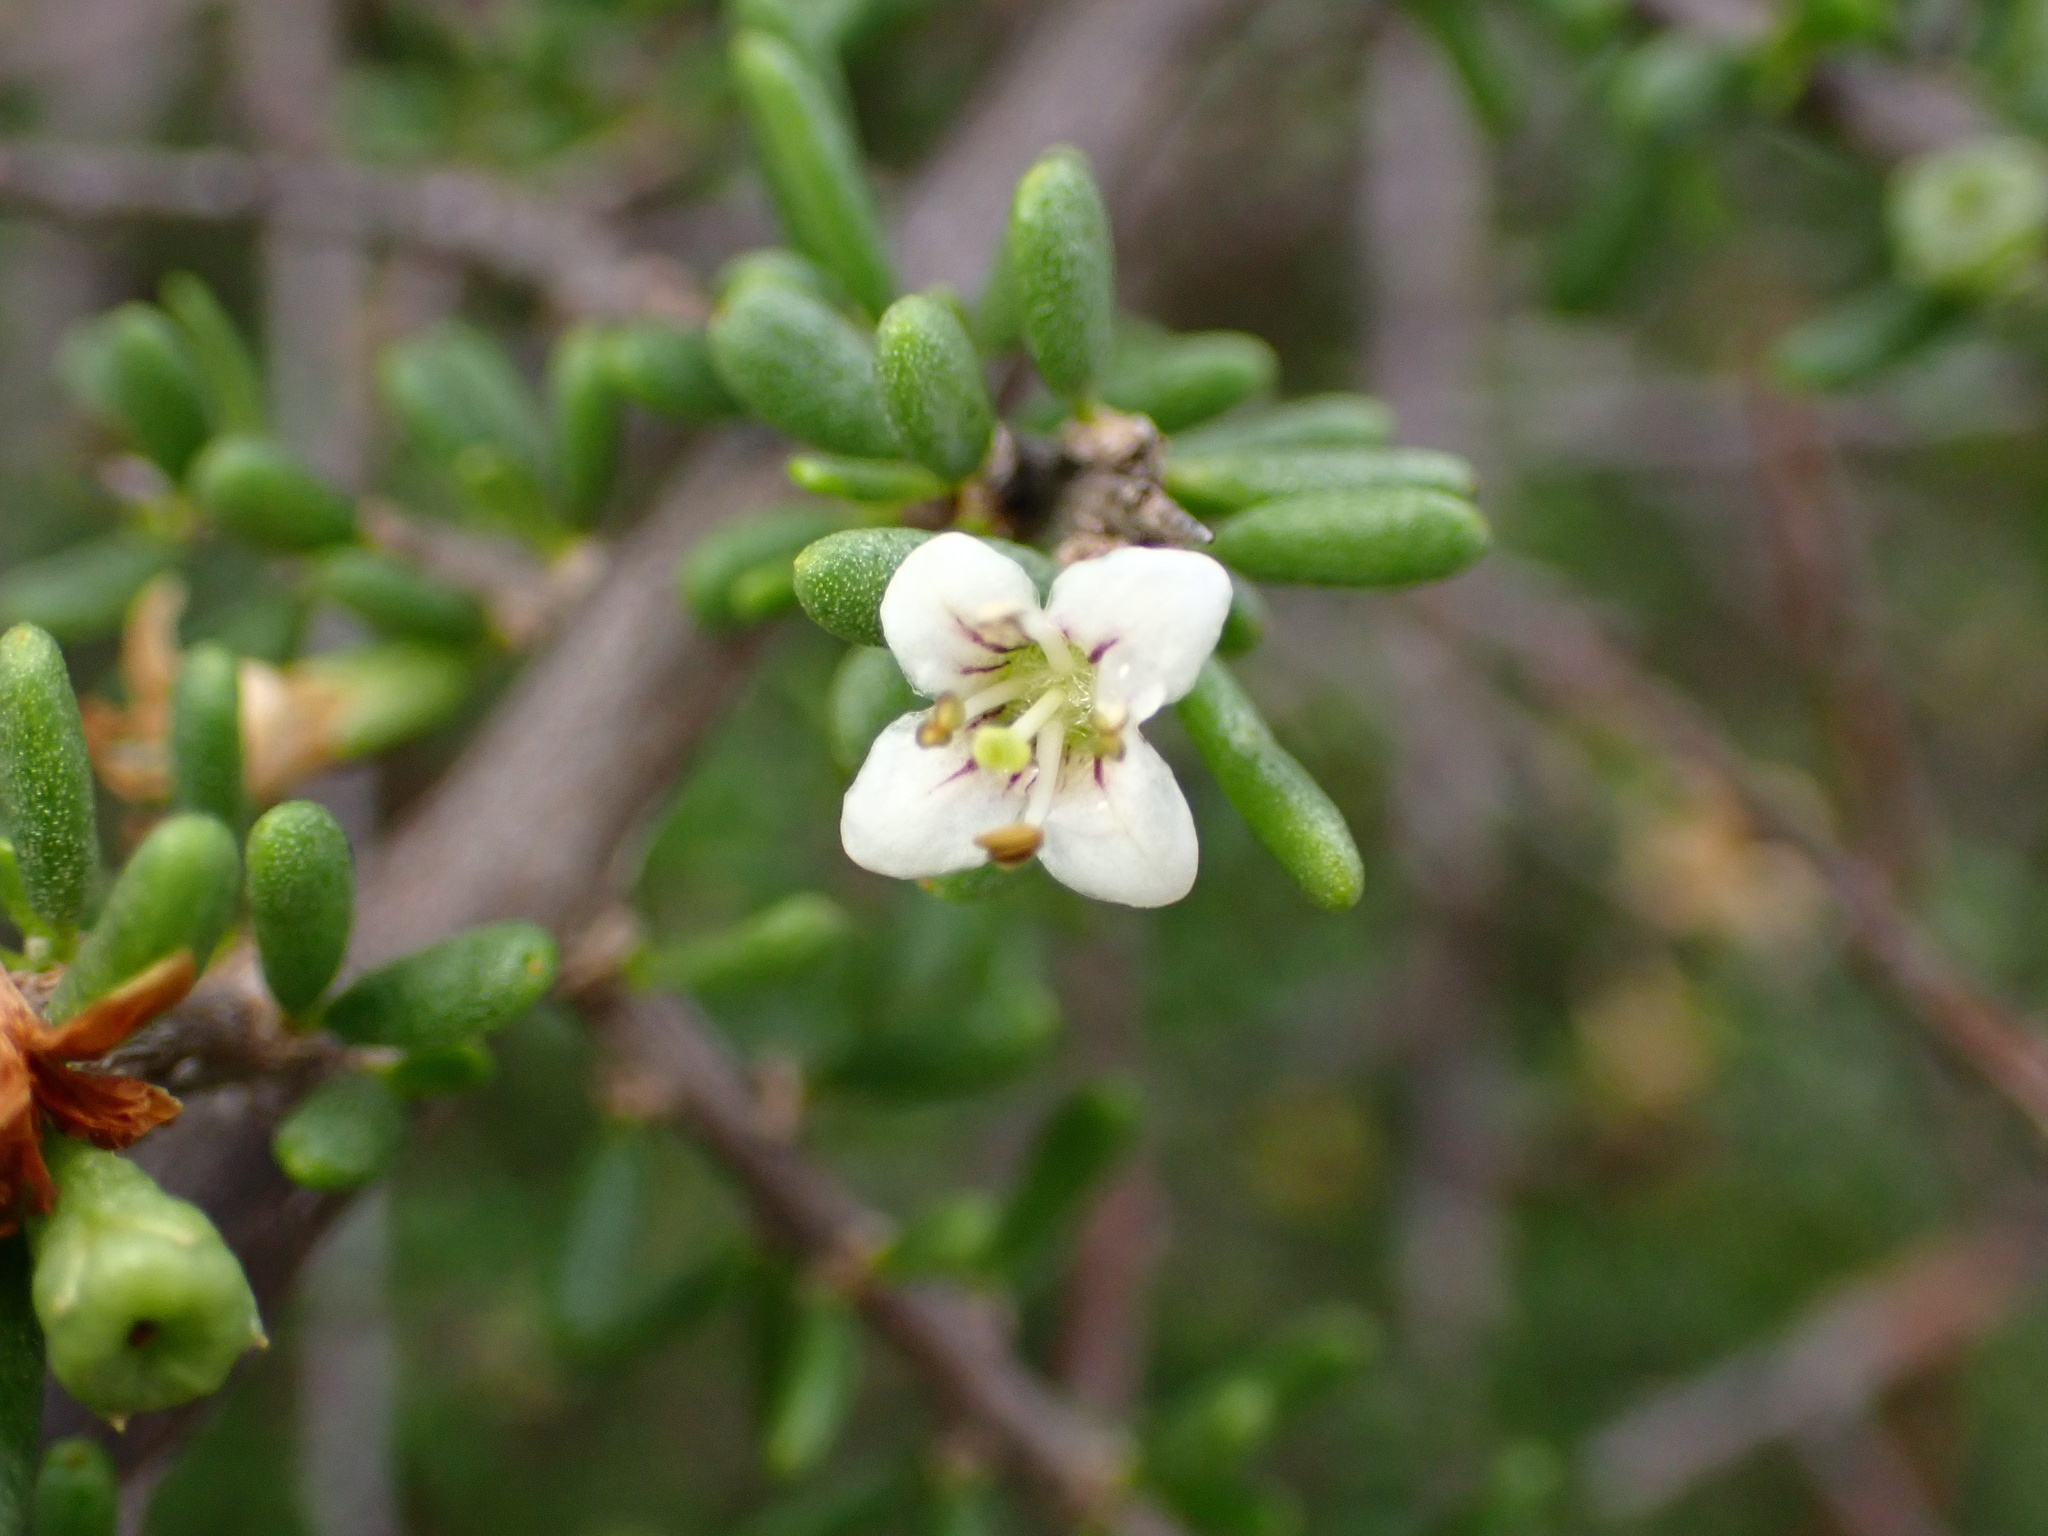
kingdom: Plantae
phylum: Tracheophyta
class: Magnoliopsida
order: Solanales
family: Solanaceae
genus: Lycium
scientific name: Lycium californicum
